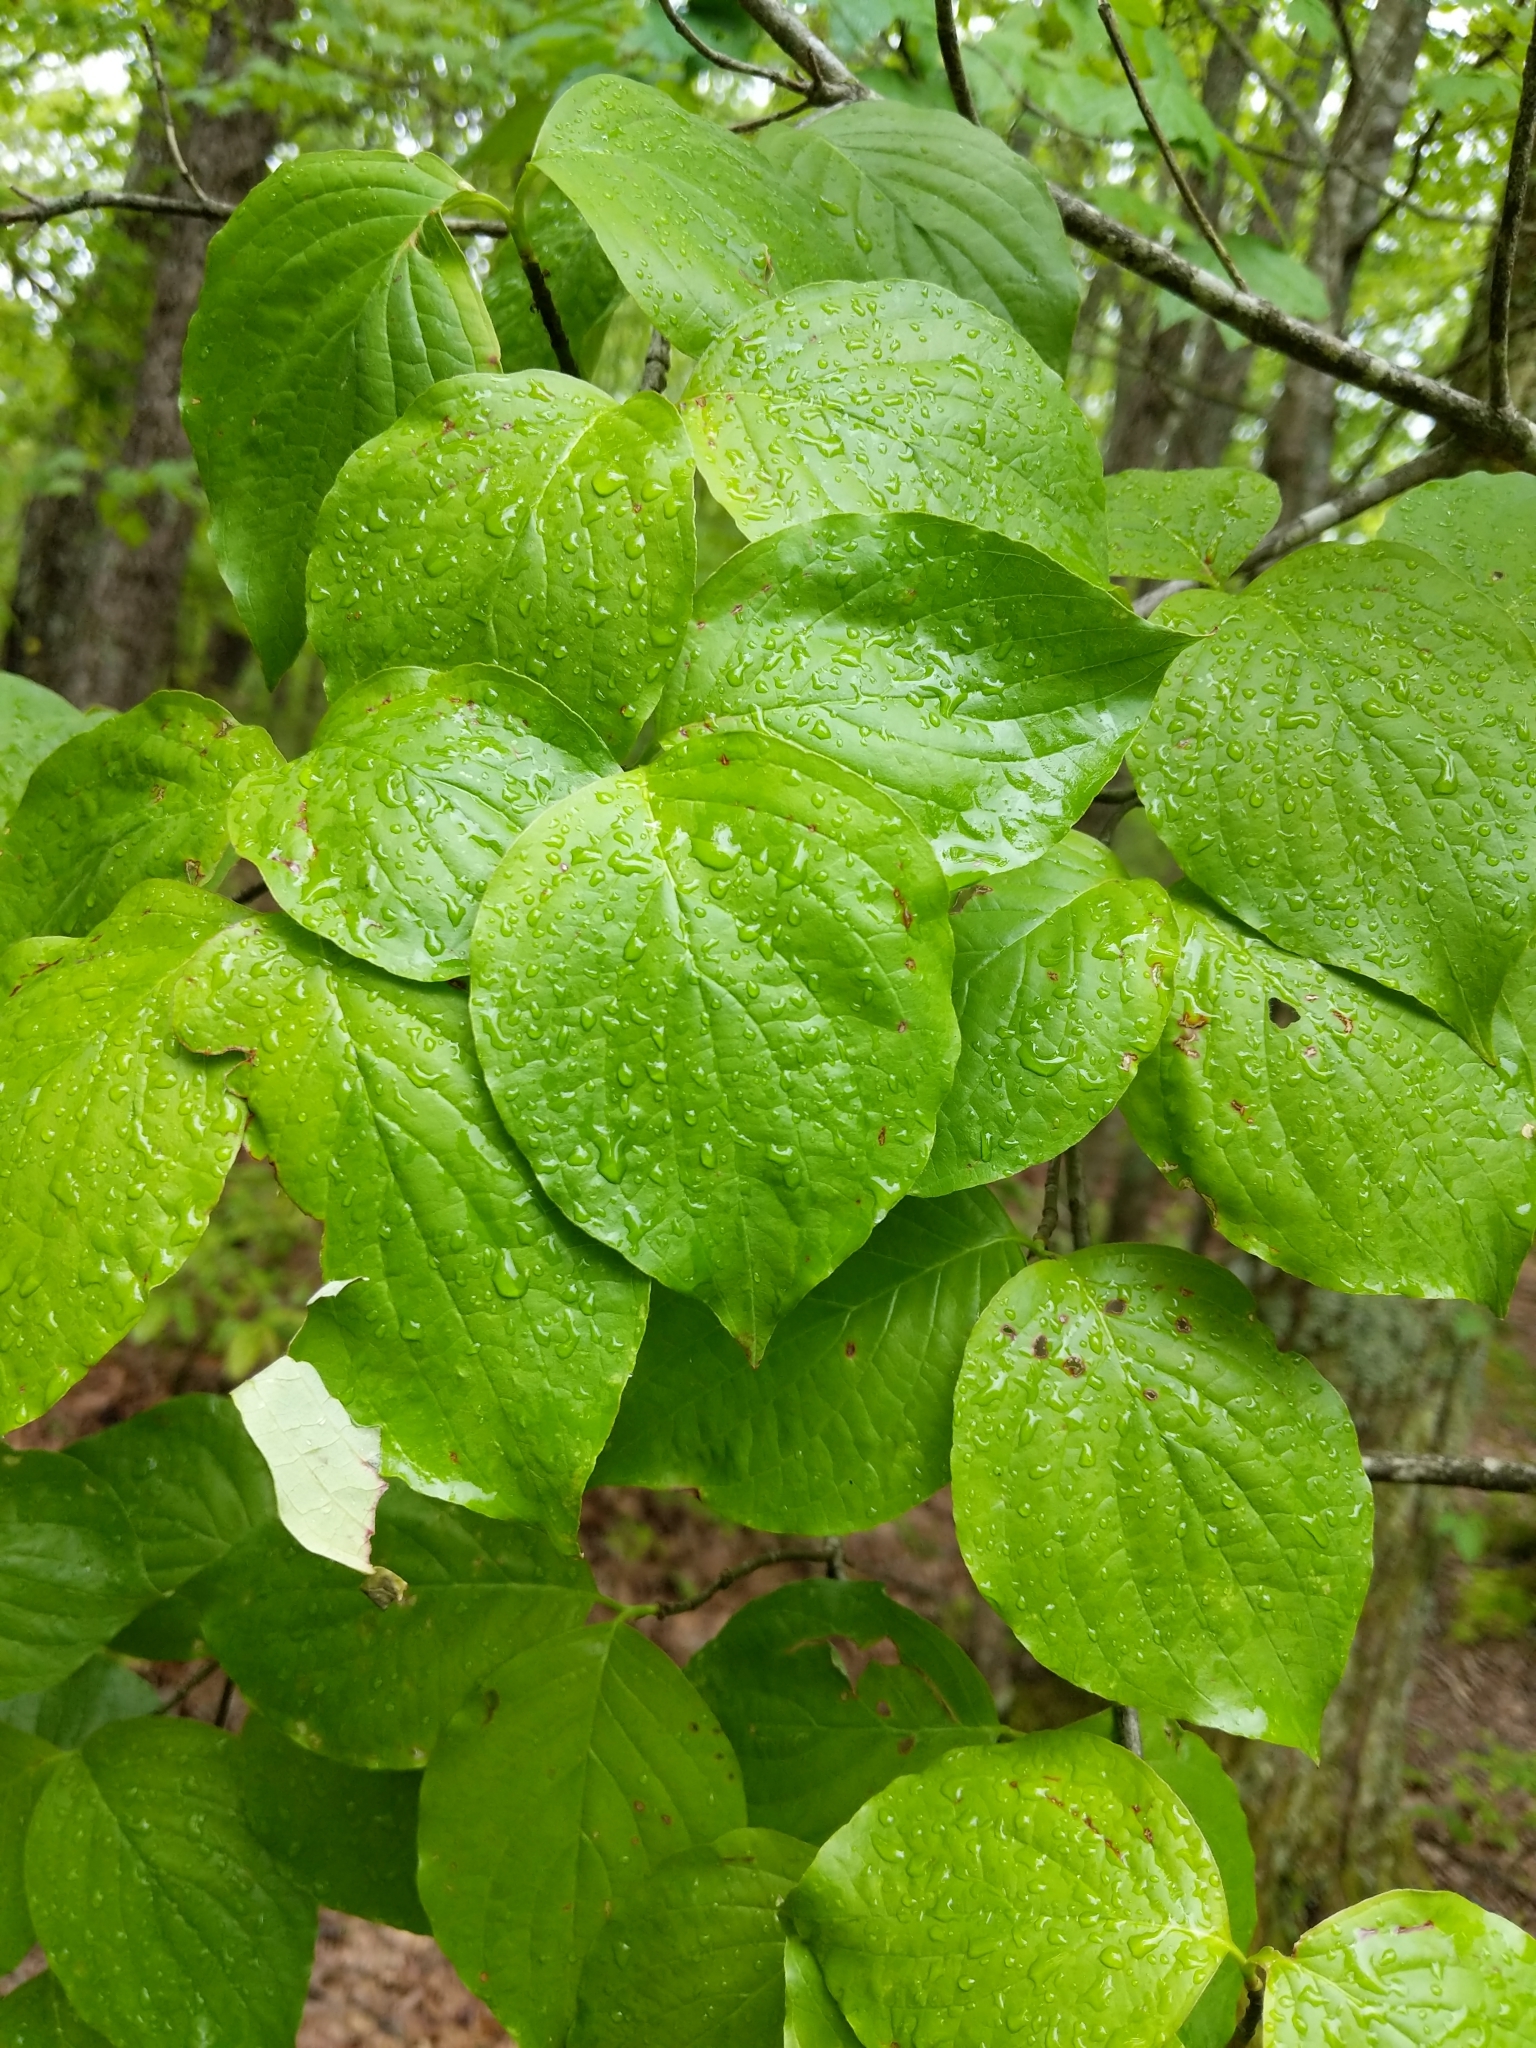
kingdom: Plantae
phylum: Tracheophyta
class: Magnoliopsida
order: Cornales
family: Cornaceae
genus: Cornus
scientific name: Cornus florida
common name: Flowering dogwood
